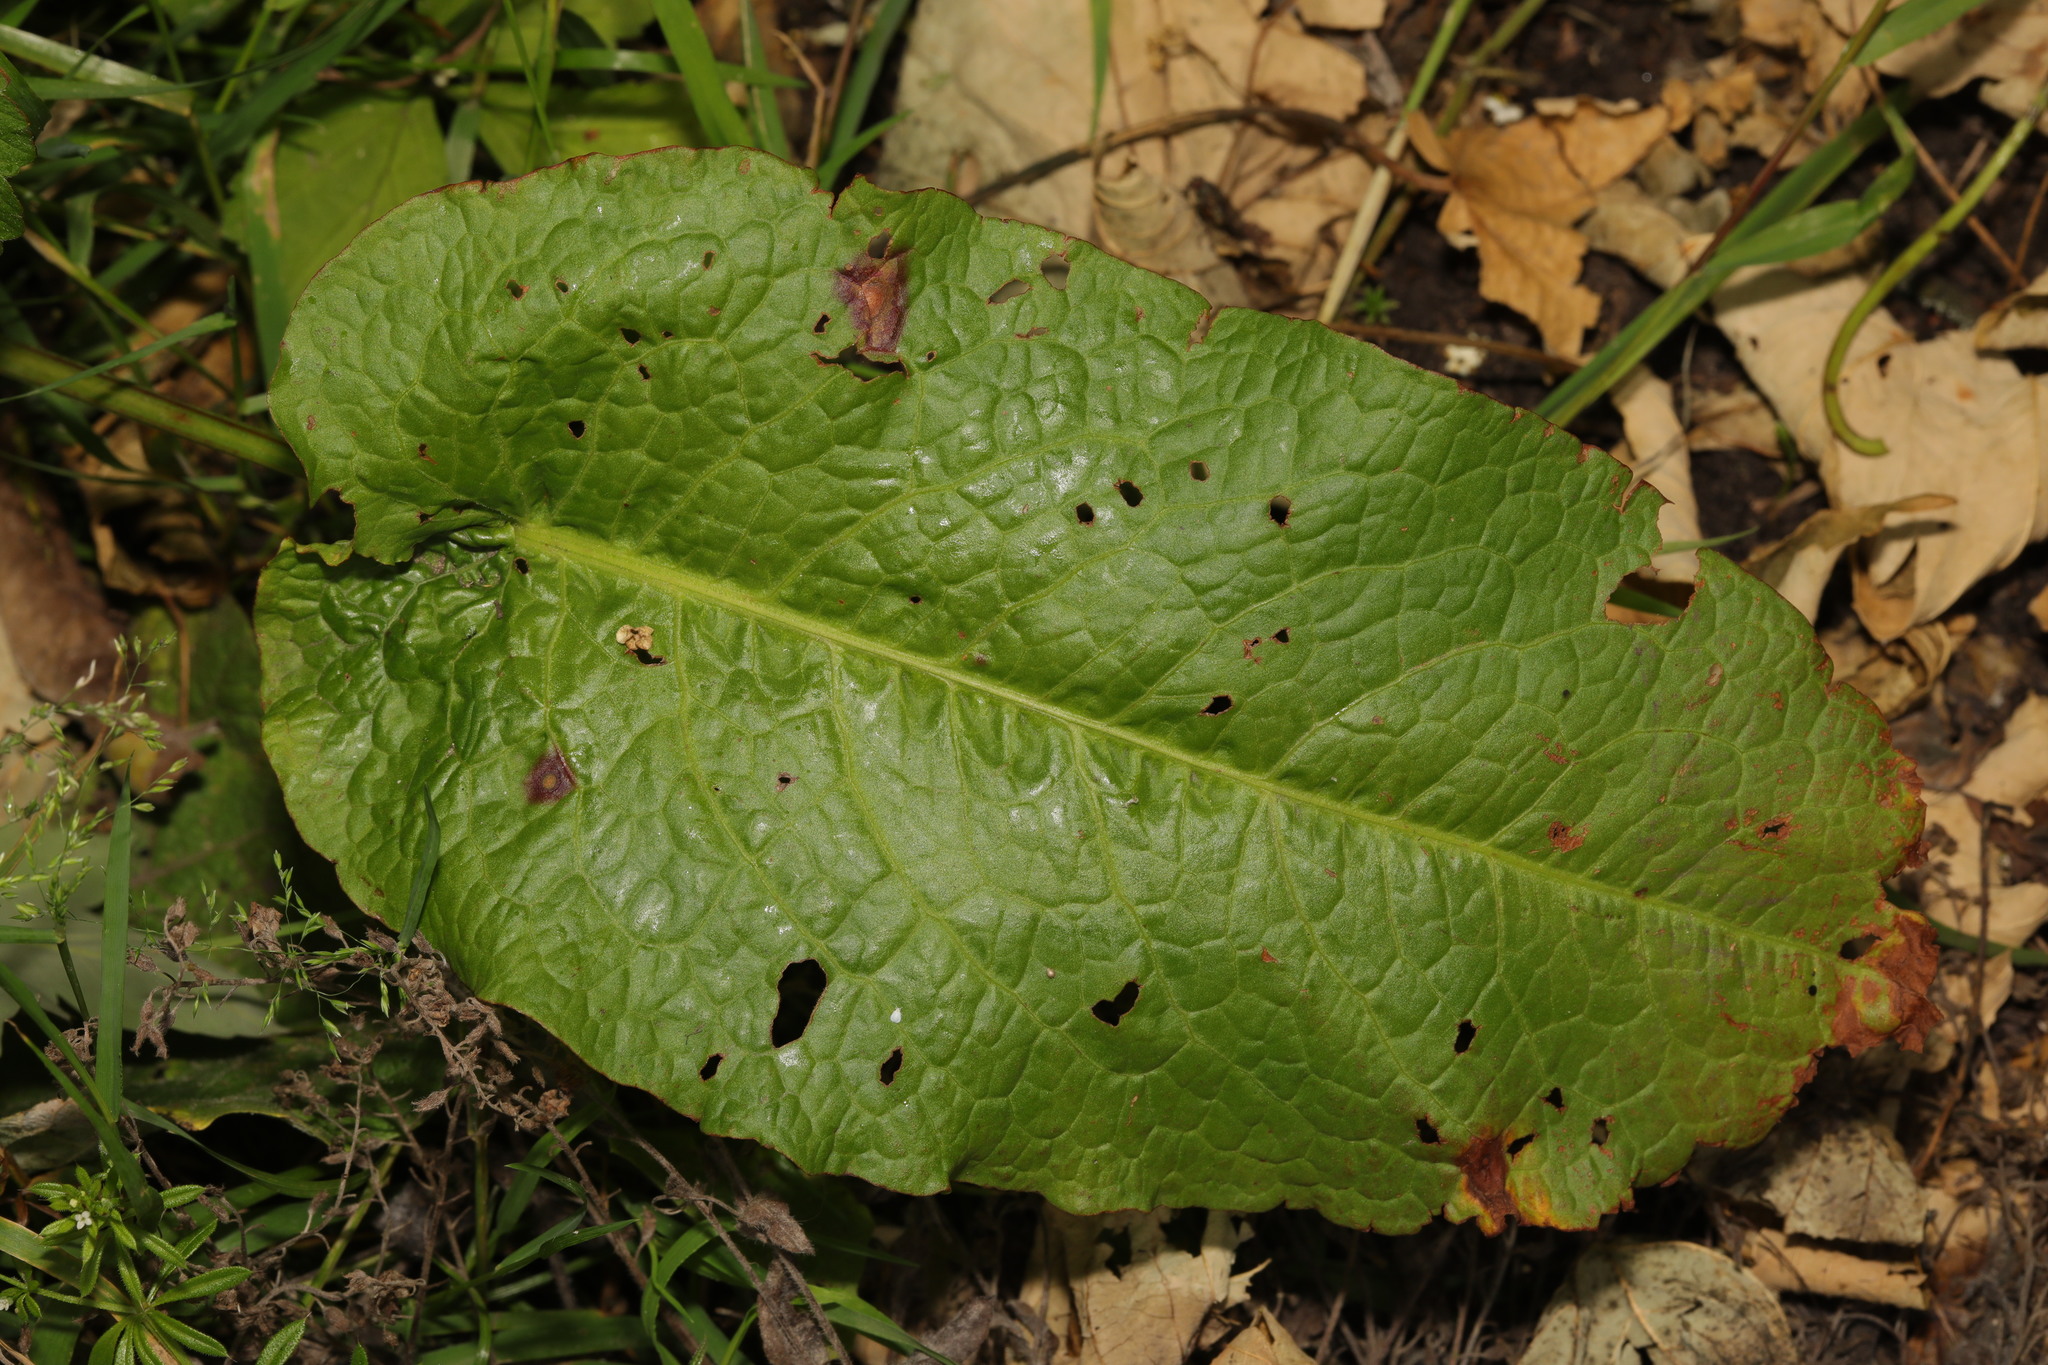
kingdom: Plantae
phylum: Tracheophyta
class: Magnoliopsida
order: Caryophyllales
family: Polygonaceae
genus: Rumex
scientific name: Rumex obtusifolius
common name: Bitter dock
